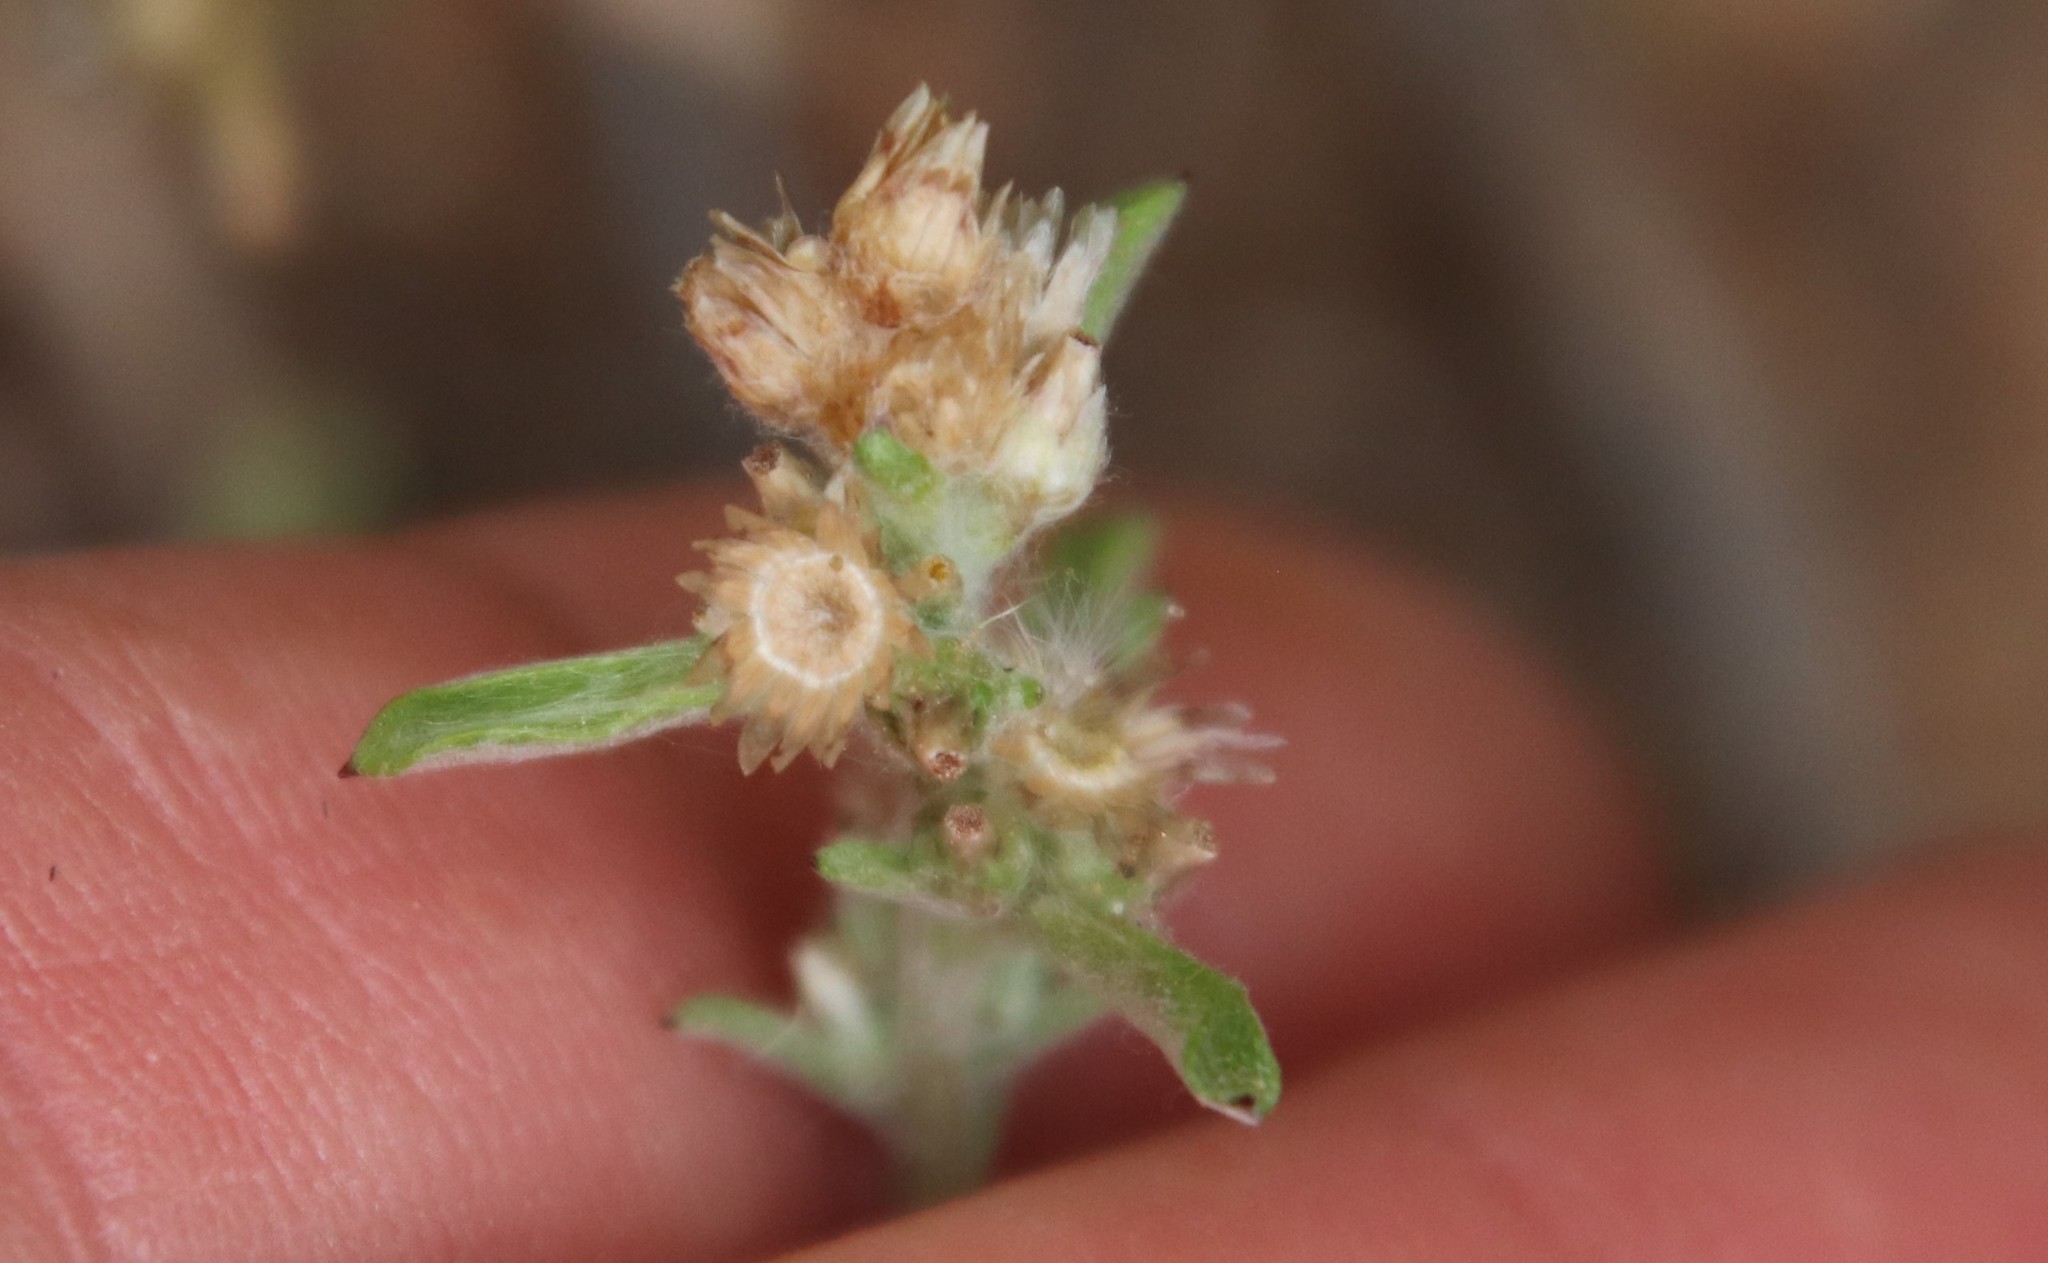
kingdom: Plantae
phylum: Tracheophyta
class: Magnoliopsida
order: Asterales
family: Asteraceae
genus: Gamochaeta
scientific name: Gamochaeta stagnalis
